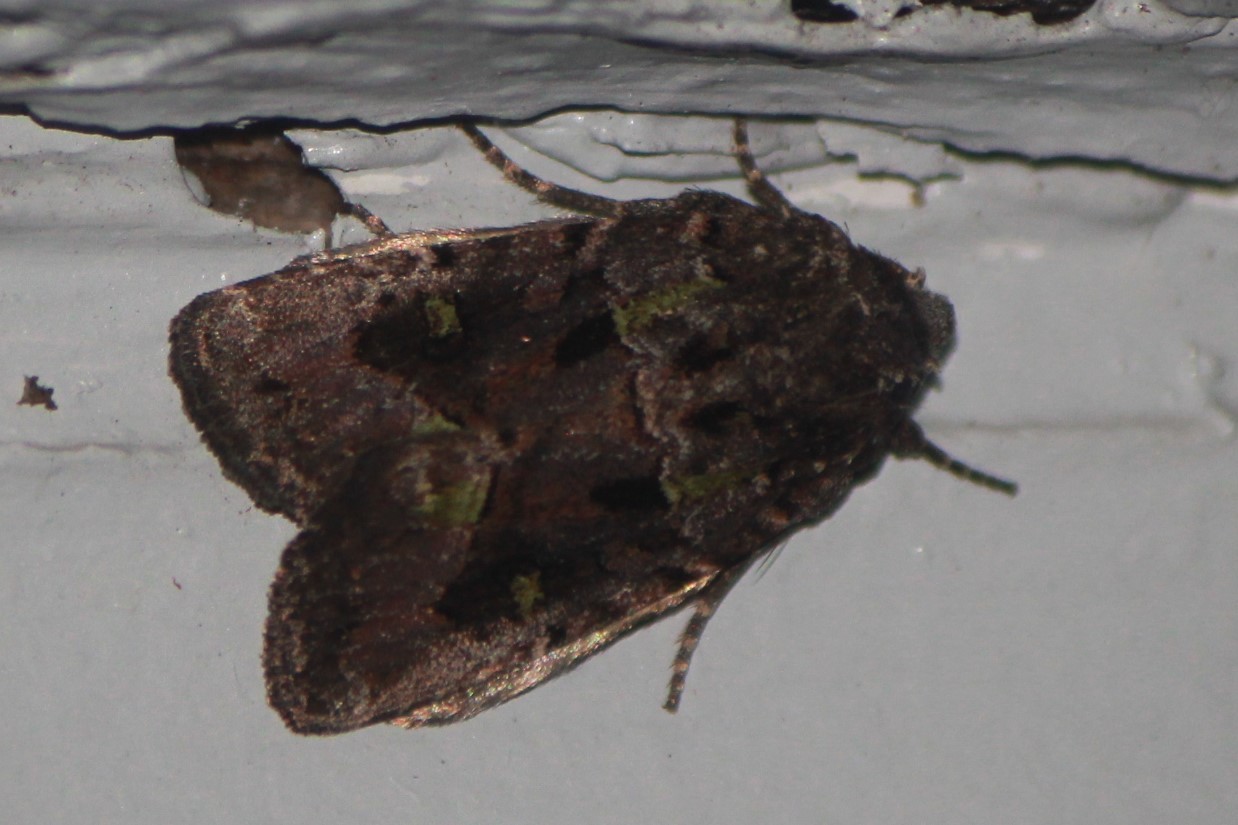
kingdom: Animalia
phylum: Arthropoda
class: Insecta
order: Lepidoptera
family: Noctuidae
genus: Lacinipolia
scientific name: Lacinipolia renigera
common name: Kidney-spotted minor
